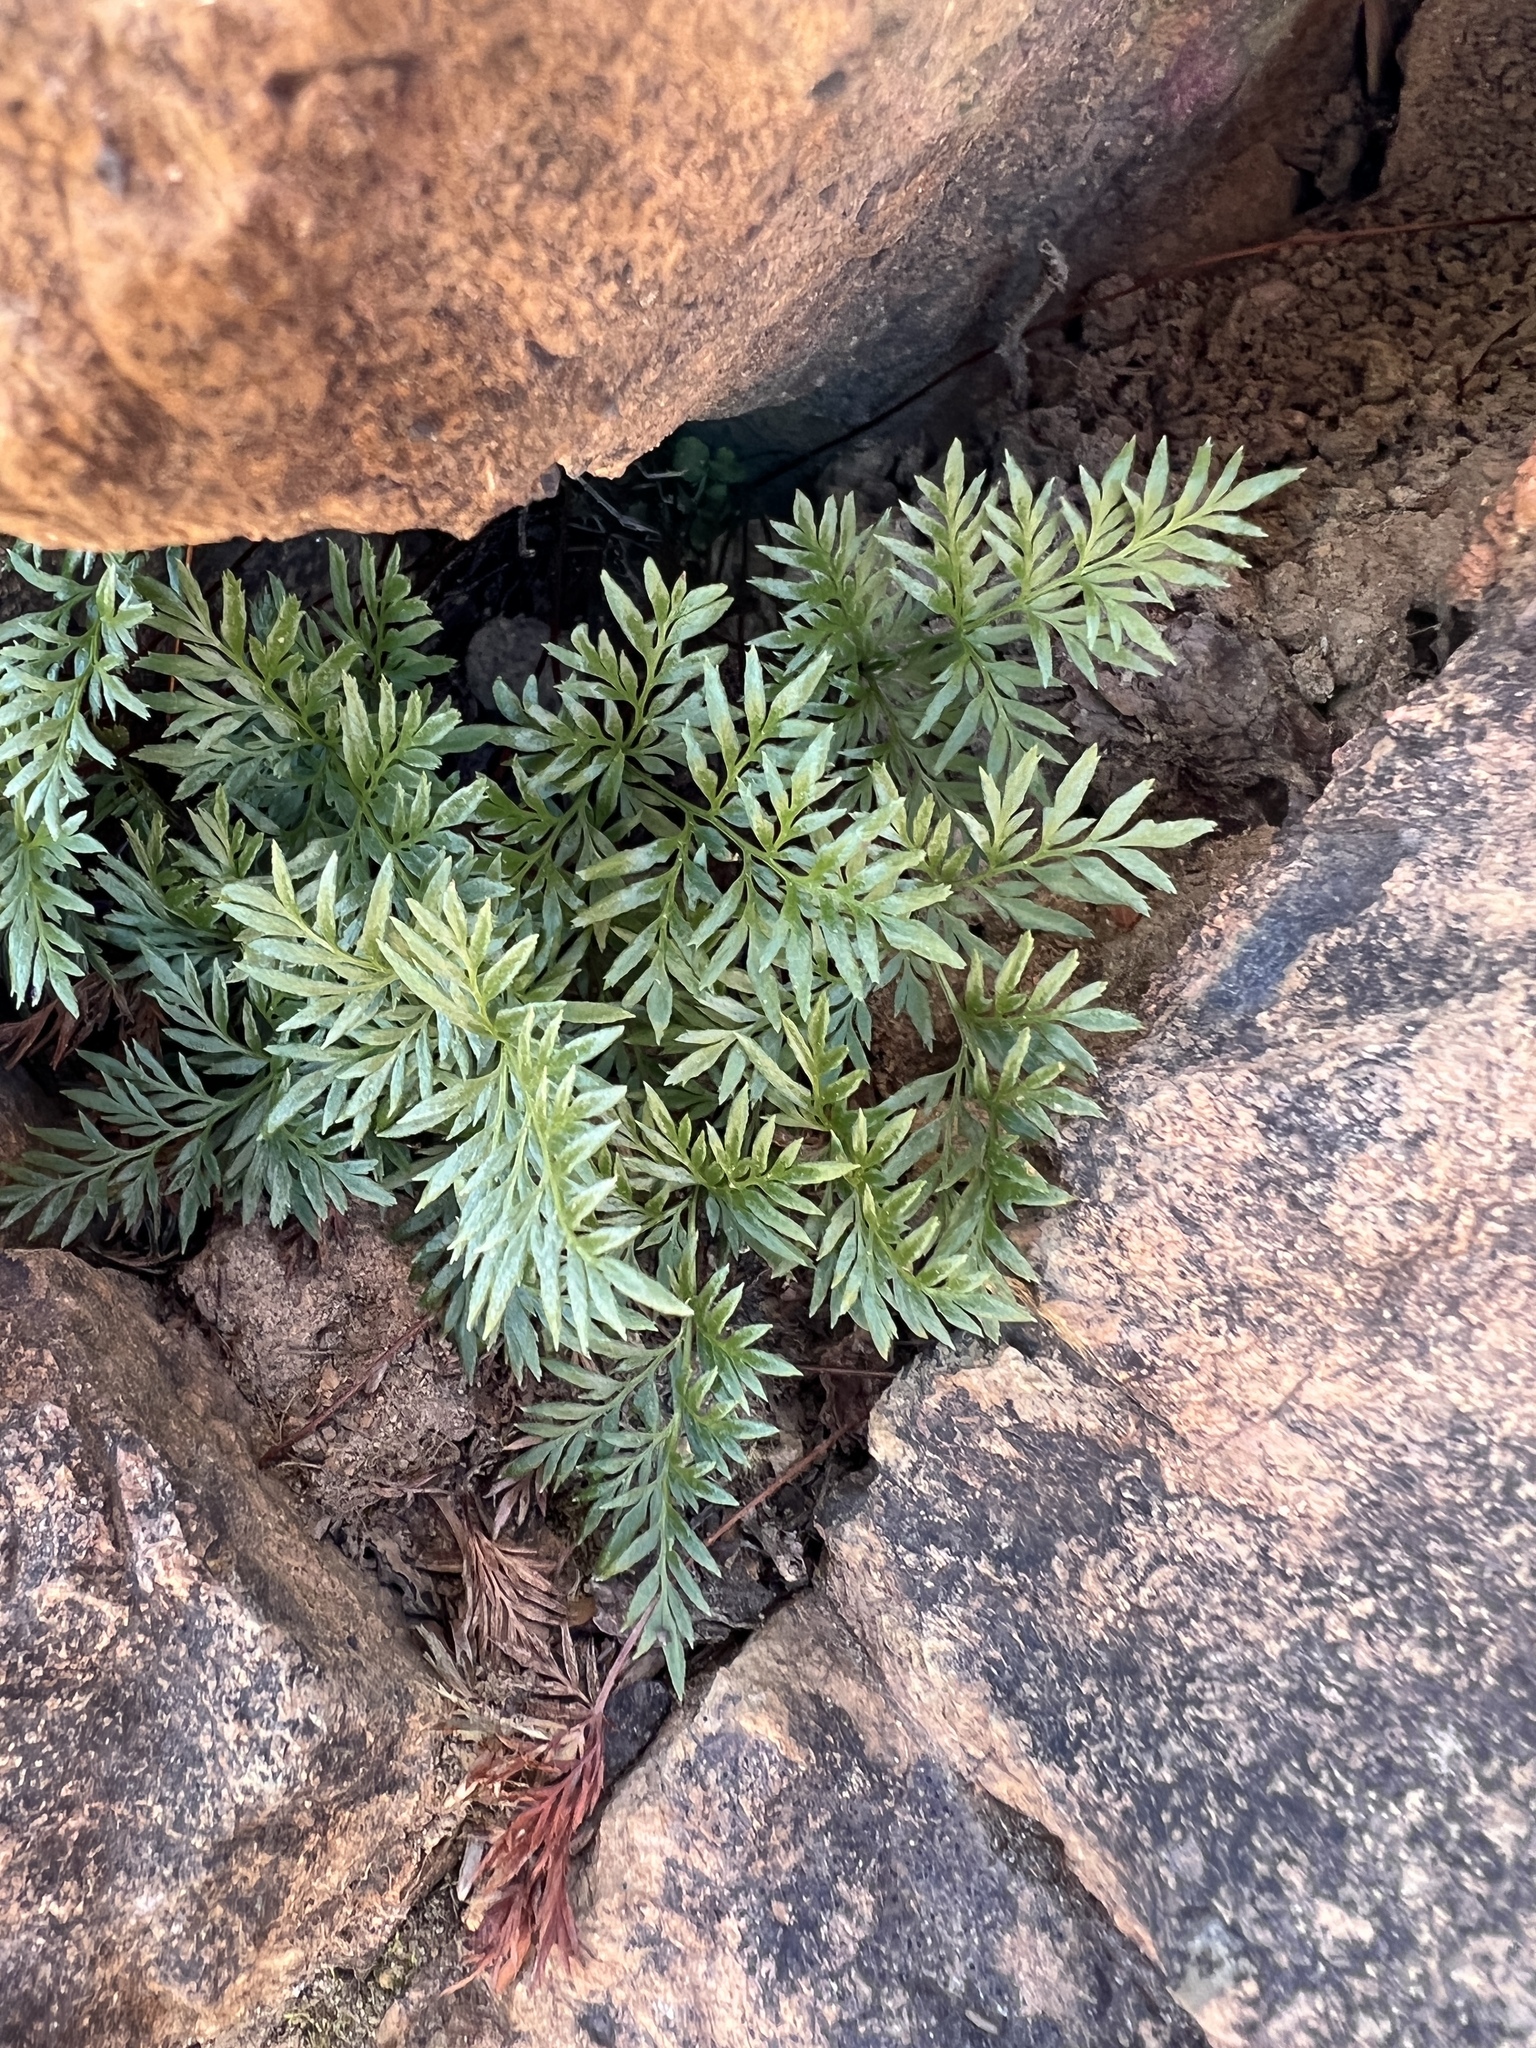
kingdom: Plantae
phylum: Tracheophyta
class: Polypodiopsida
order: Polypodiales
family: Pteridaceae
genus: Aspidotis
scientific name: Aspidotis densa
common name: Indian's dream
